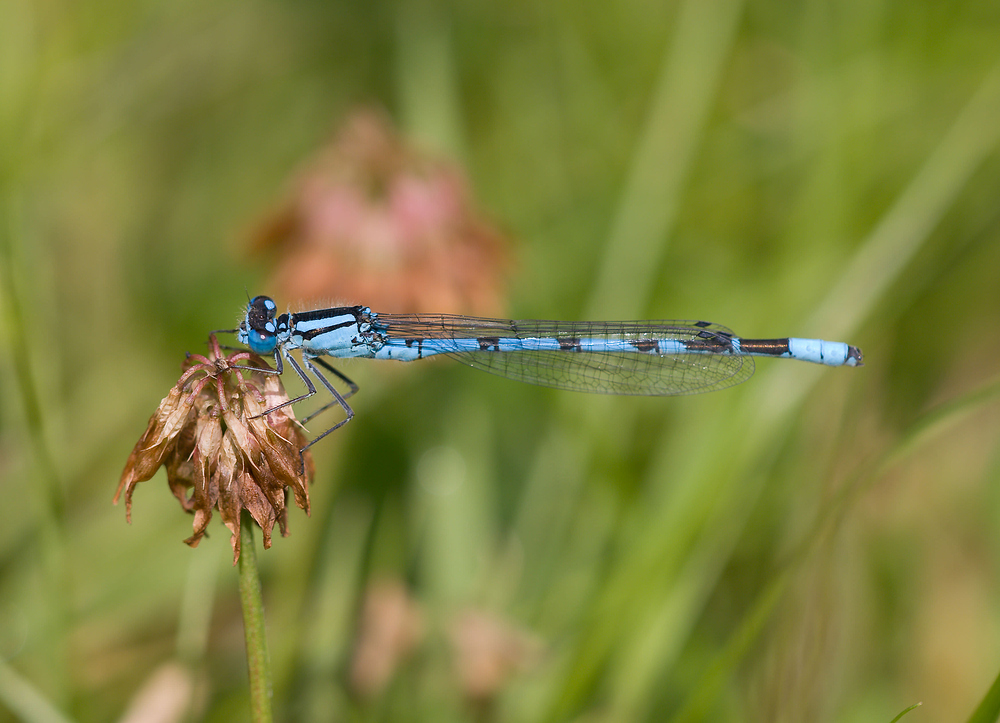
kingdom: Animalia
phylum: Arthropoda
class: Insecta
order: Odonata
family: Coenagrionidae
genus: Enallagma
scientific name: Enallagma cyathigerum
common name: Common blue damselfly
